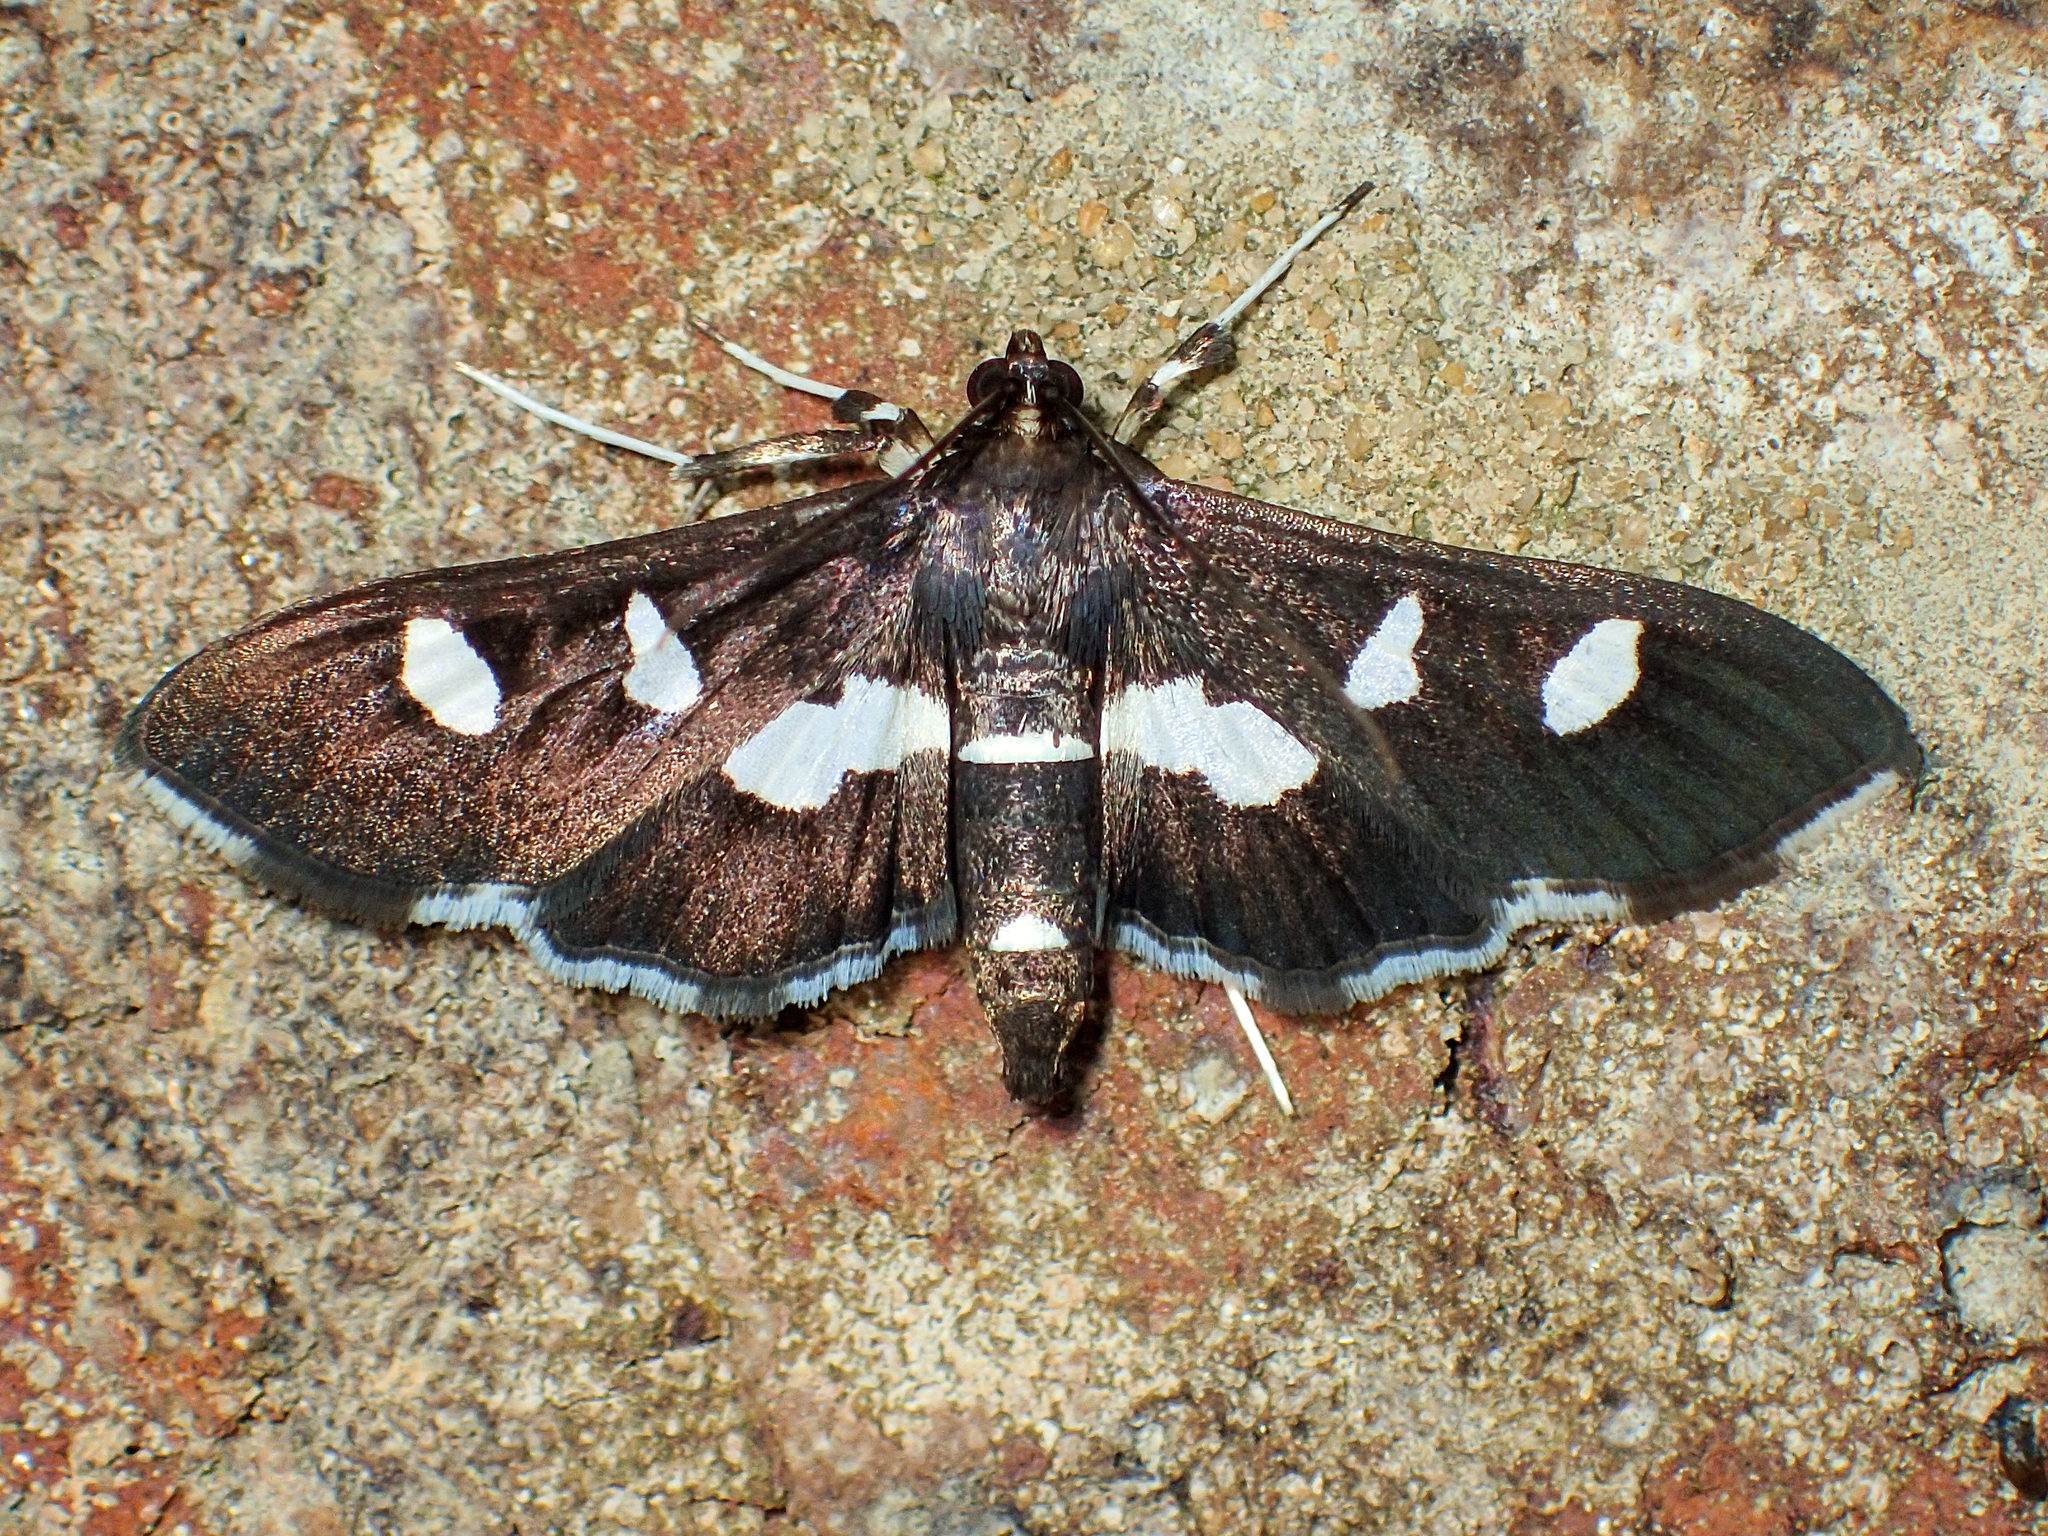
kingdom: Animalia
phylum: Arthropoda
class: Insecta
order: Lepidoptera
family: Crambidae
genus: Desmia
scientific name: Desmia
